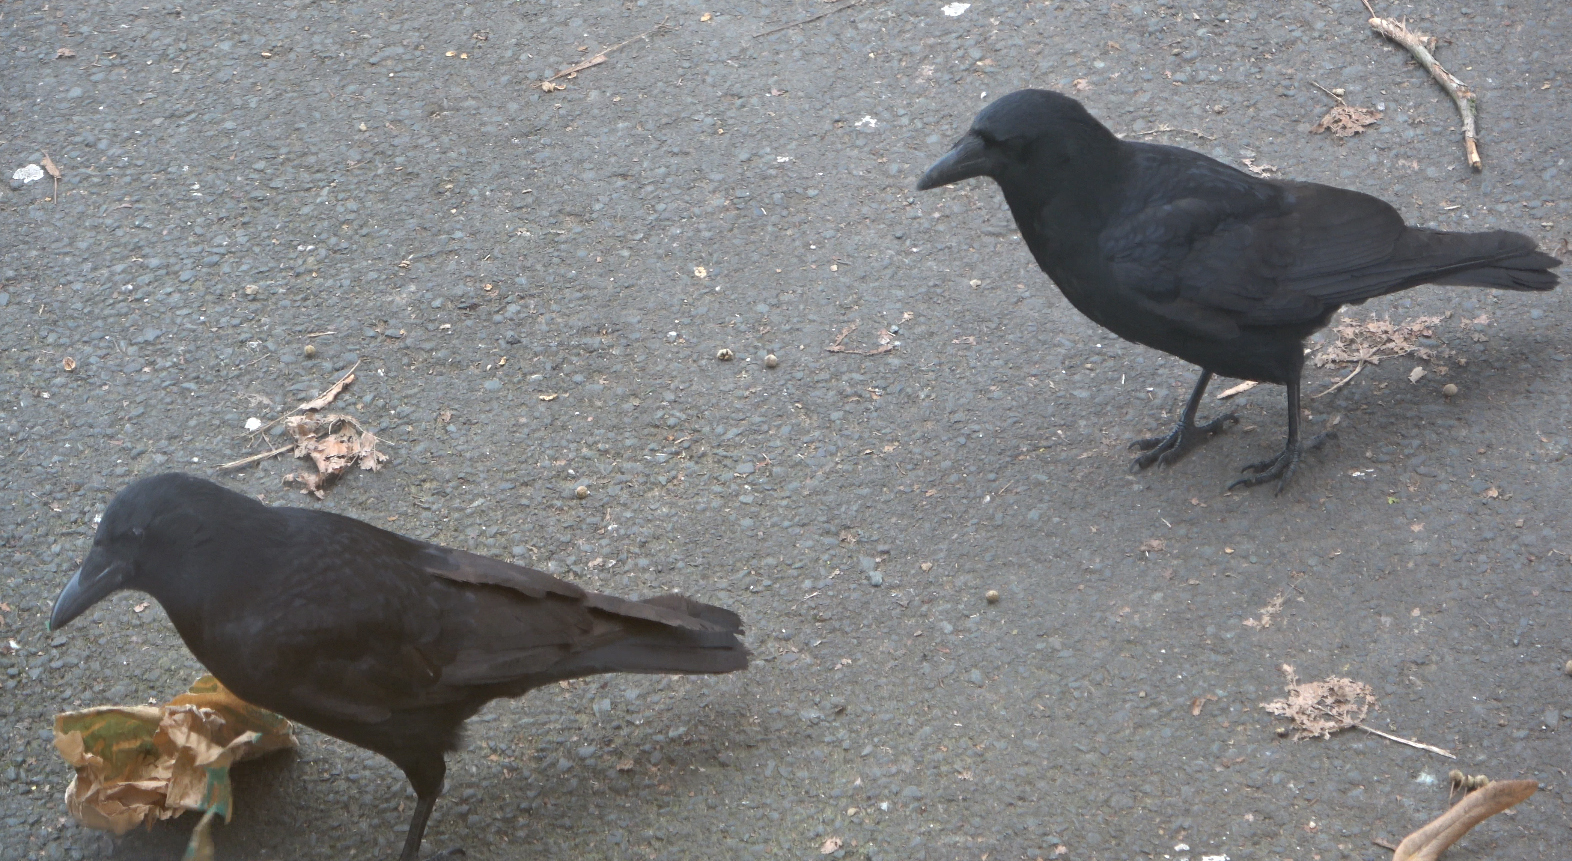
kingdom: Animalia
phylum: Chordata
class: Aves
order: Passeriformes
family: Corvidae
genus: Corvus
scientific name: Corvus corone
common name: Carrion crow
